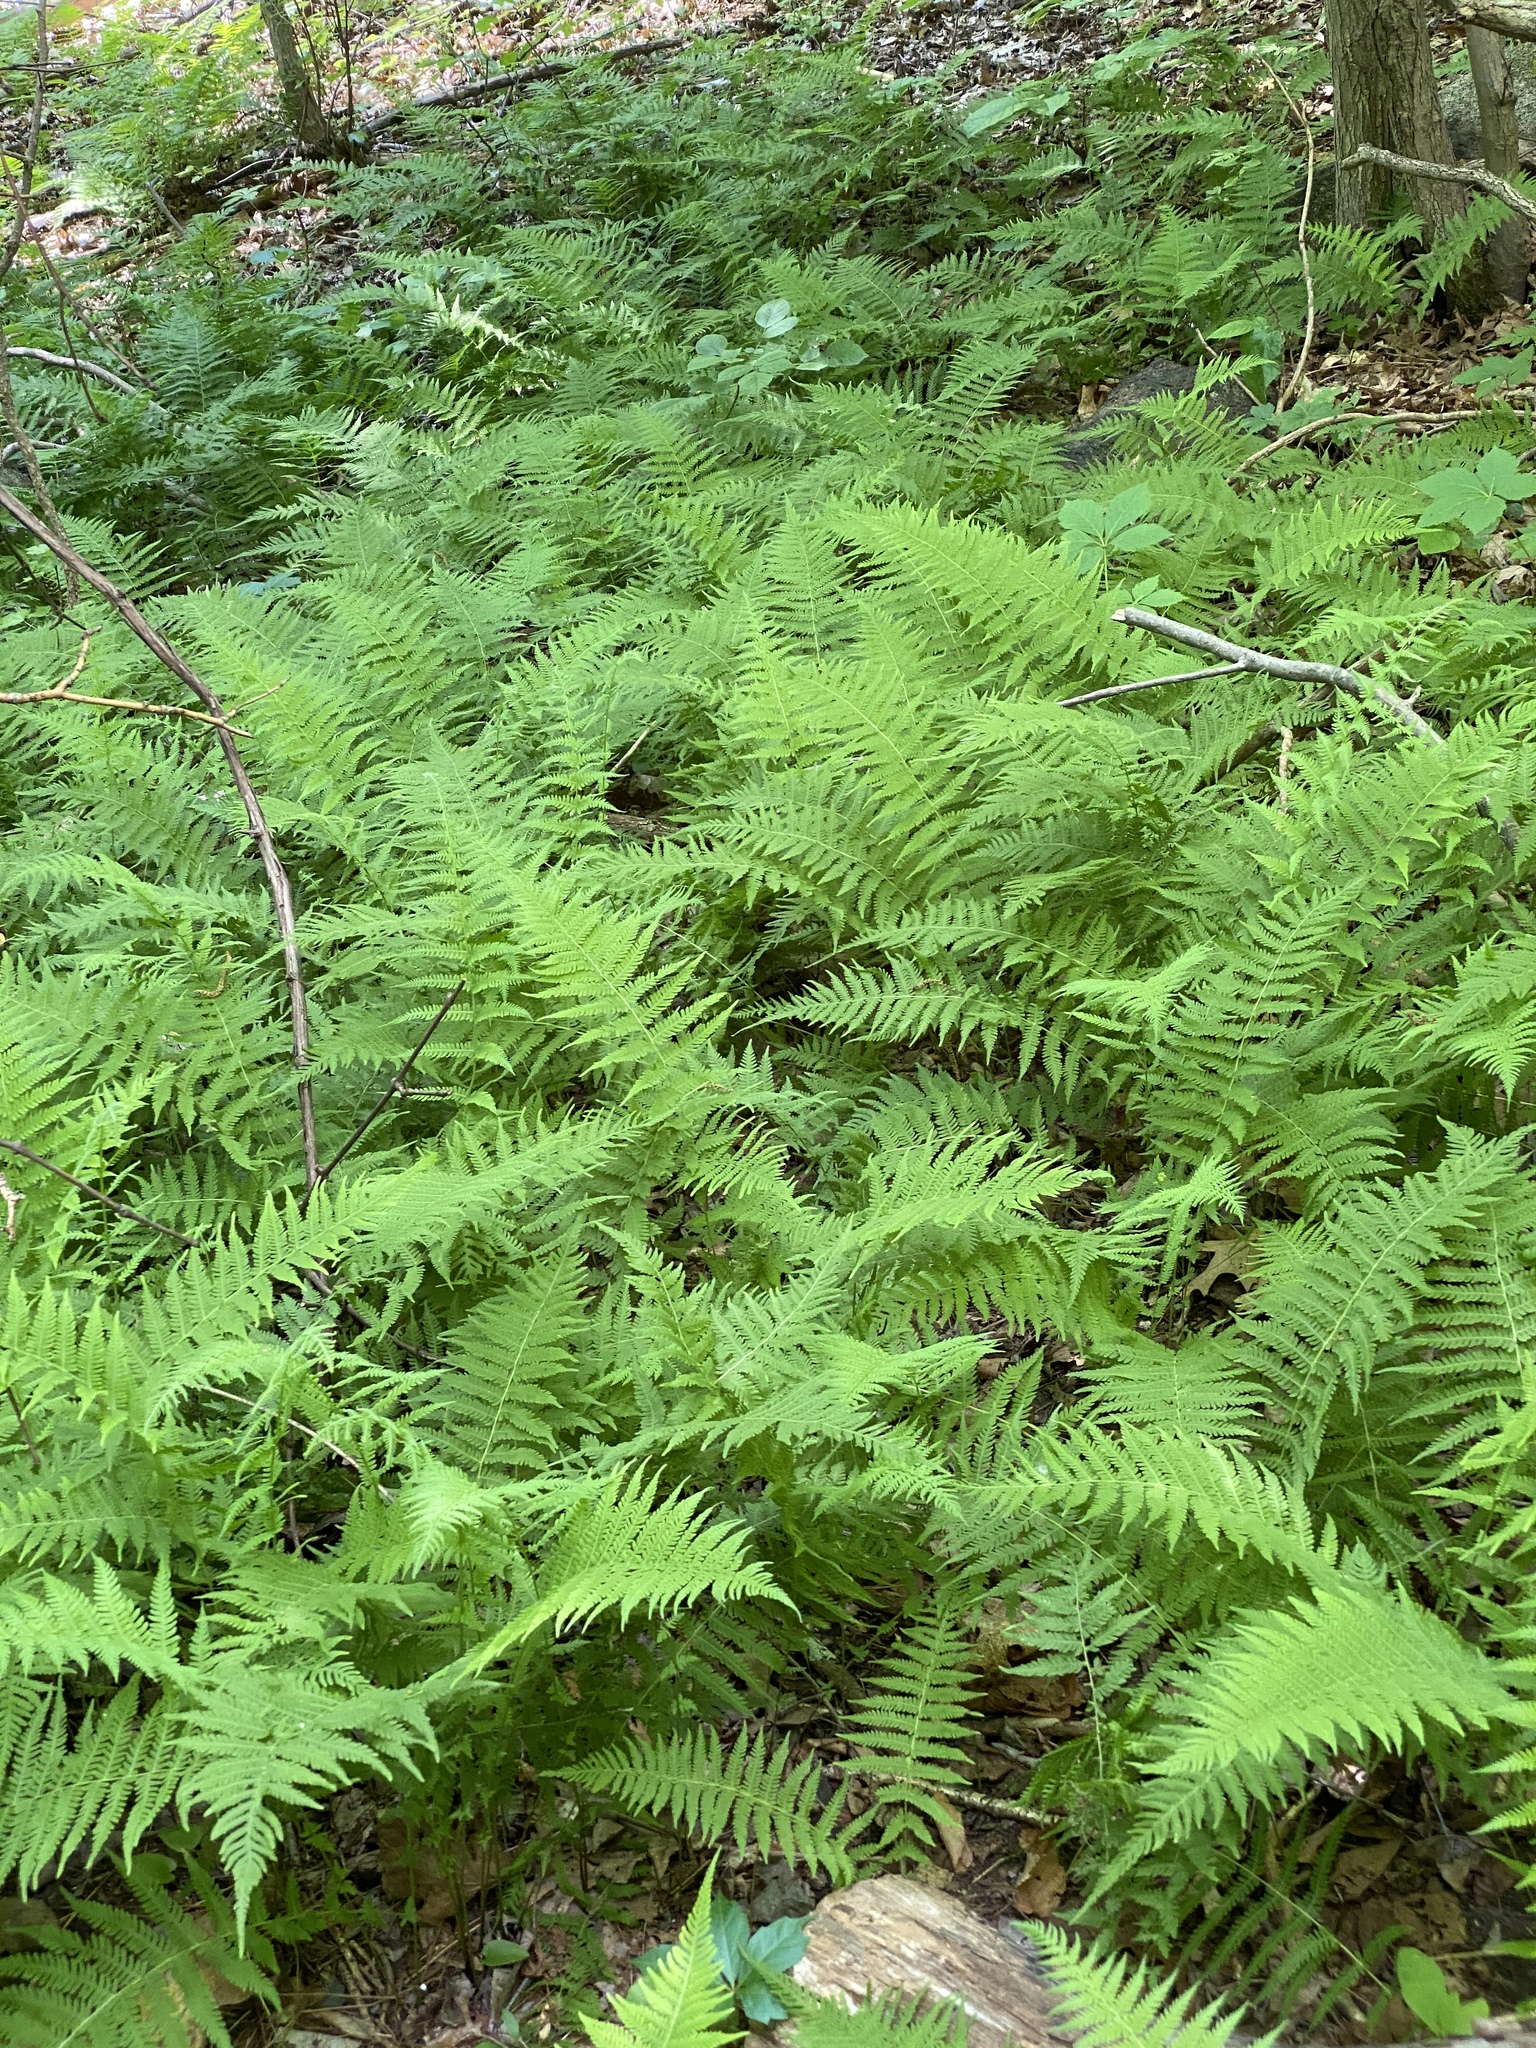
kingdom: Plantae
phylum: Tracheophyta
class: Polypodiopsida
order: Polypodiales
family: Thelypteridaceae
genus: Amauropelta
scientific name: Amauropelta noveboracensis
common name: New york fern
